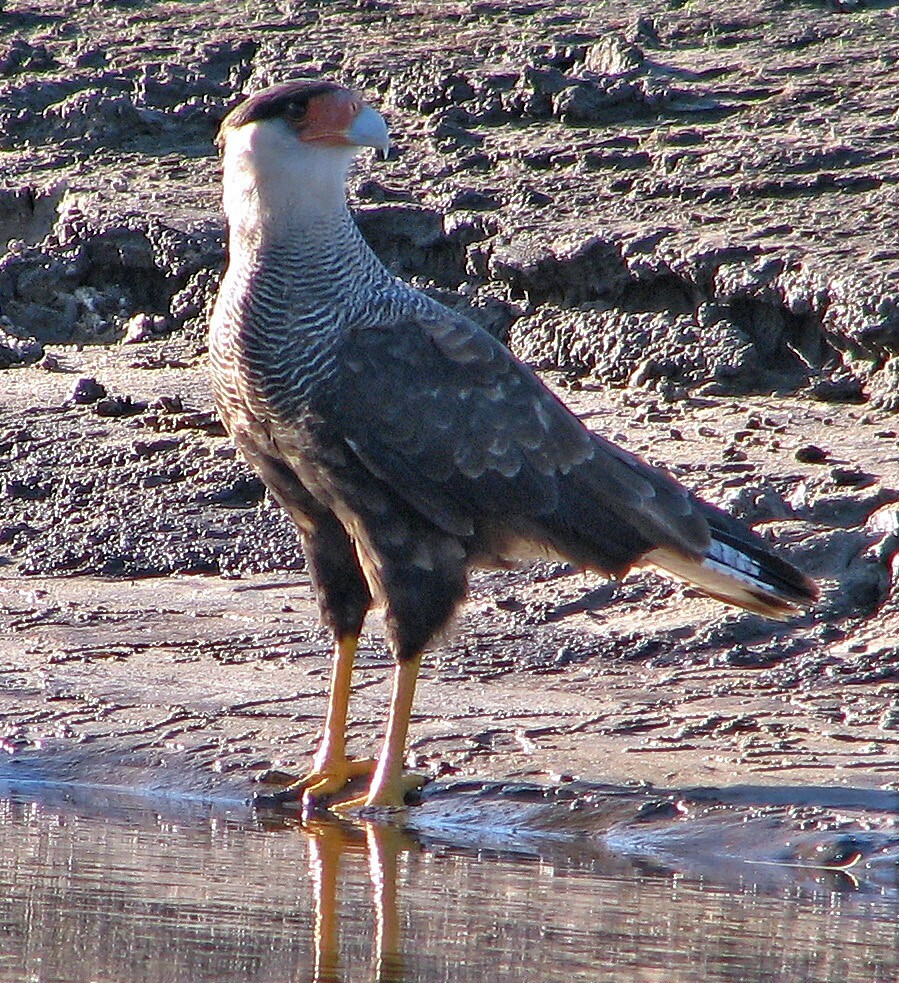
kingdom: Animalia
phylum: Chordata
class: Aves
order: Falconiformes
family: Falconidae
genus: Caracara
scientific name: Caracara plancus
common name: Southern caracara
